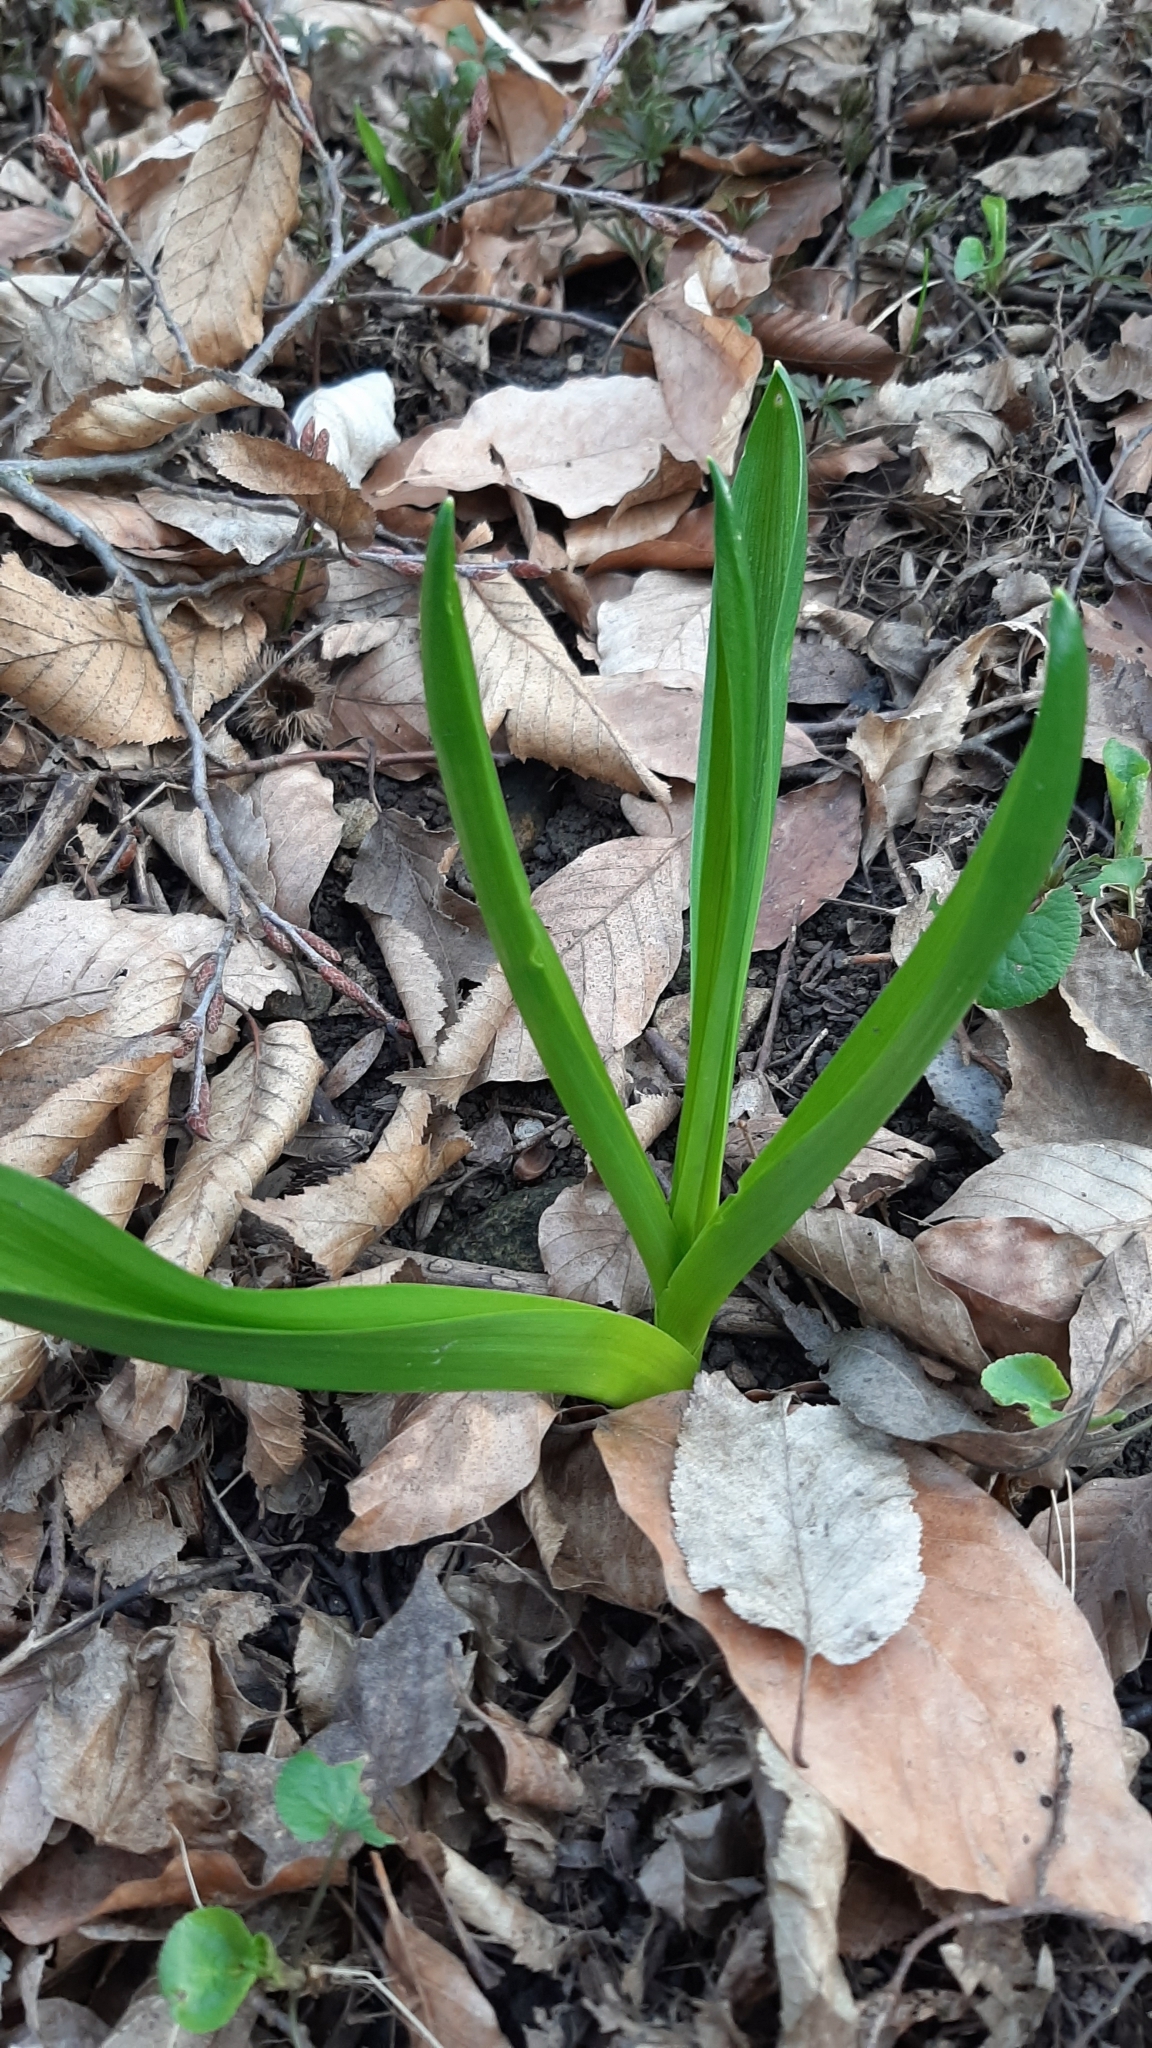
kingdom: Plantae
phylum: Tracheophyta
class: Liliopsida
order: Asparagales
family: Asparagaceae
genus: Ornithogalum
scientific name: Ornithogalum arcuatum
